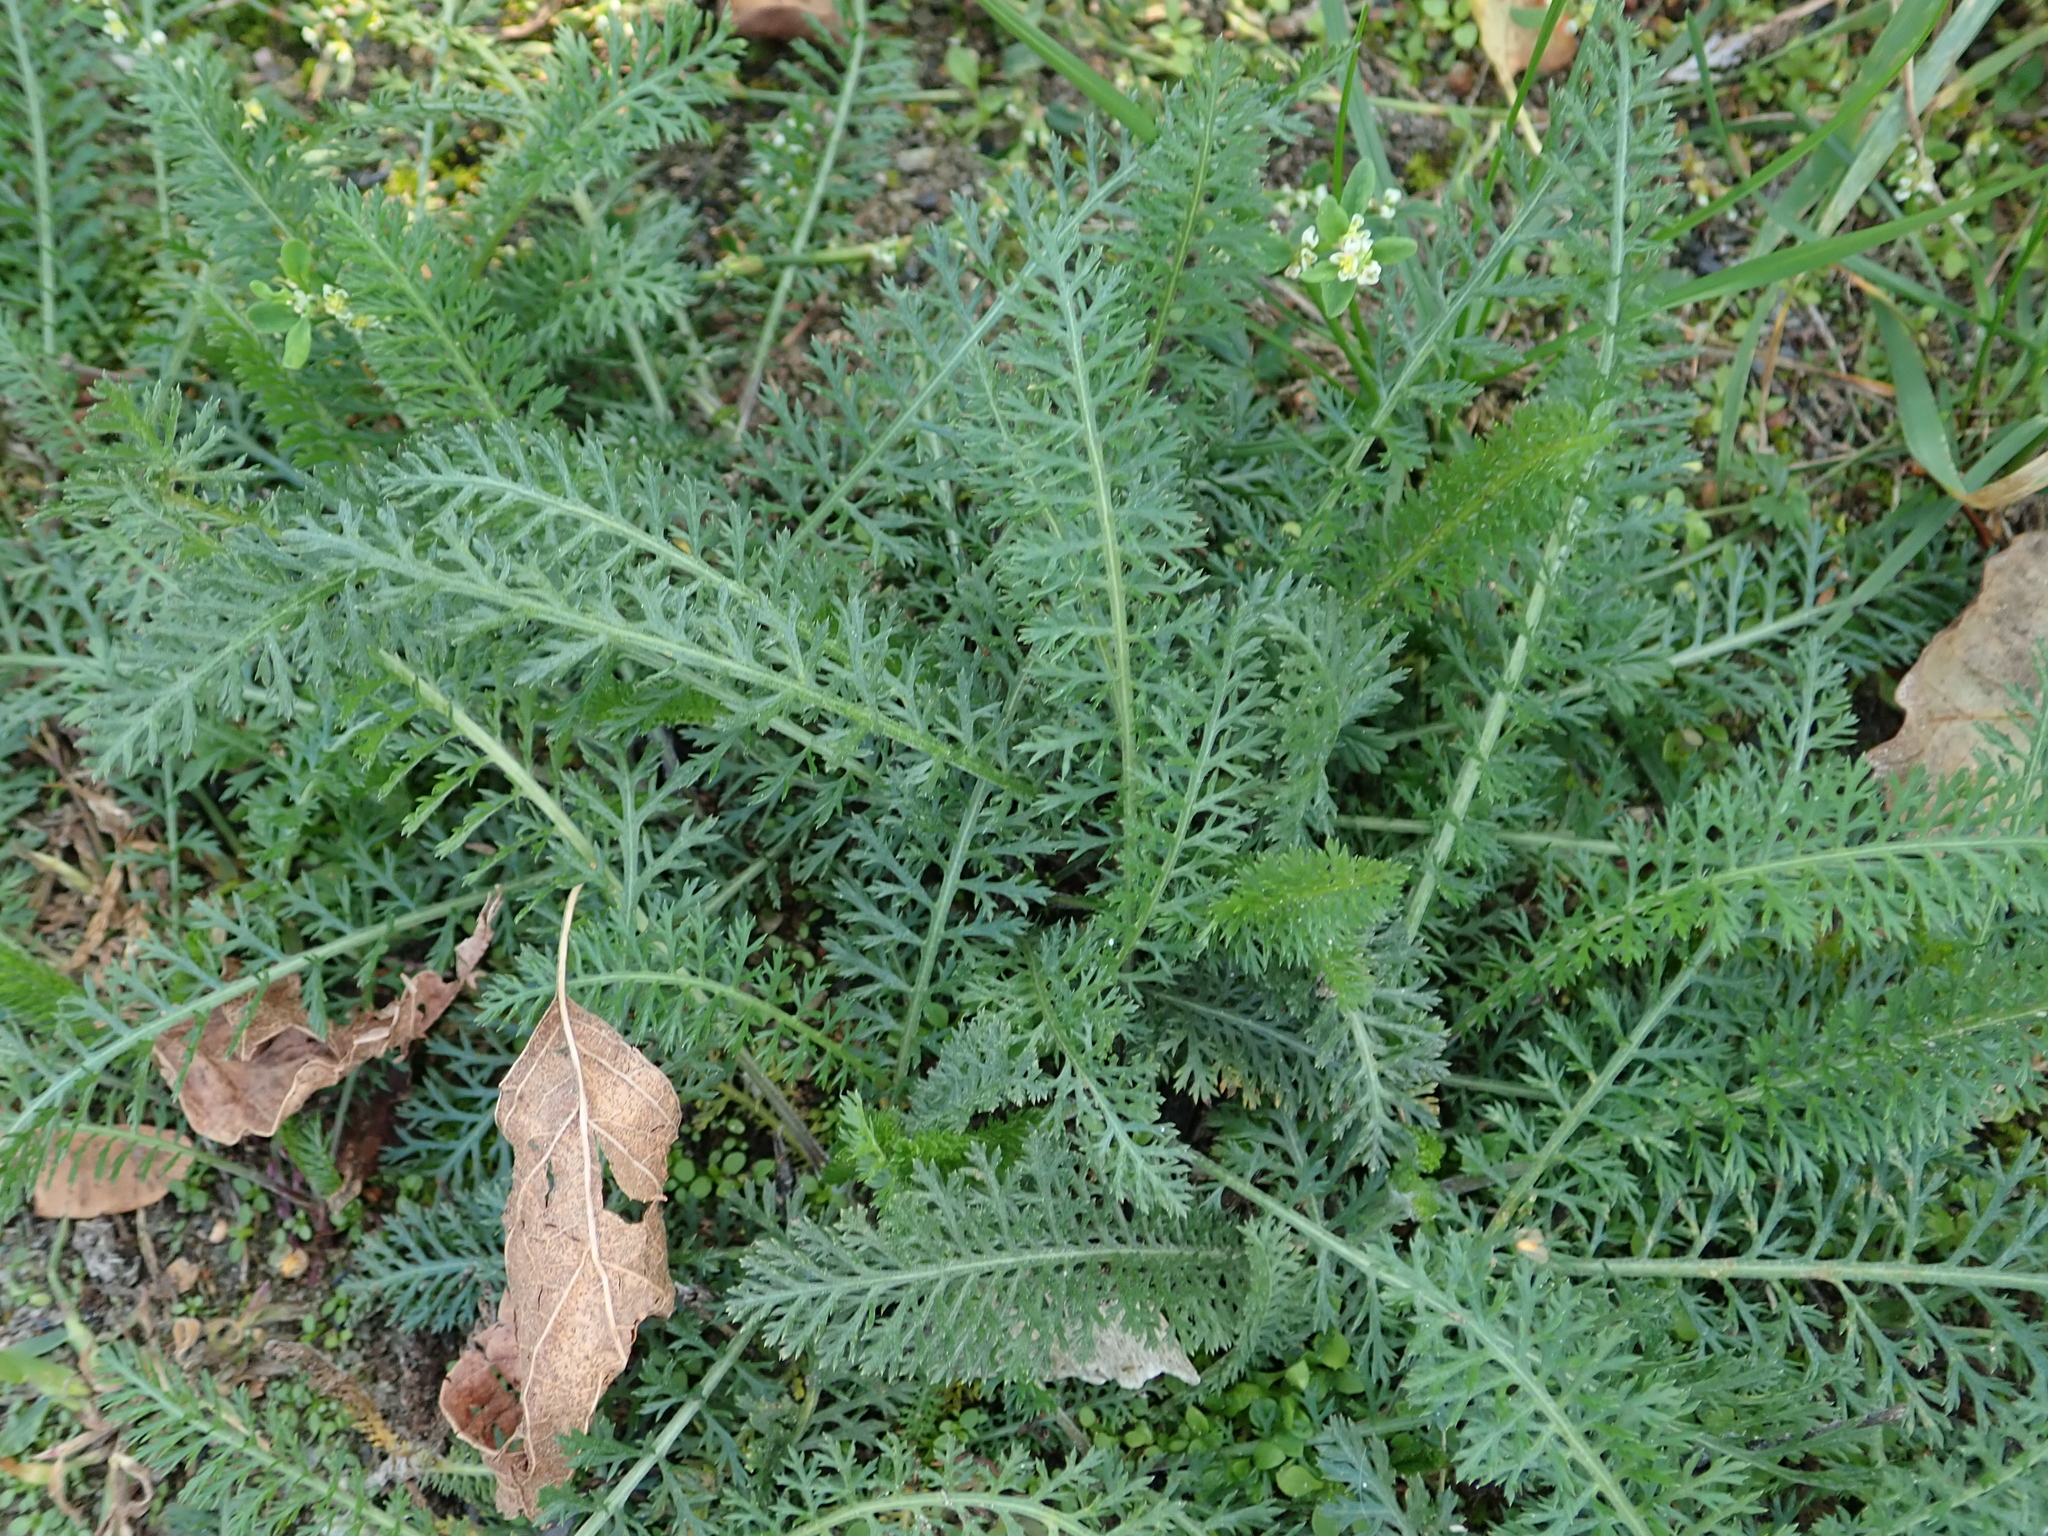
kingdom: Plantae
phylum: Tracheophyta
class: Magnoliopsida
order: Asterales
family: Asteraceae
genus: Achillea
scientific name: Achillea millefolium
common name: Yarrow
